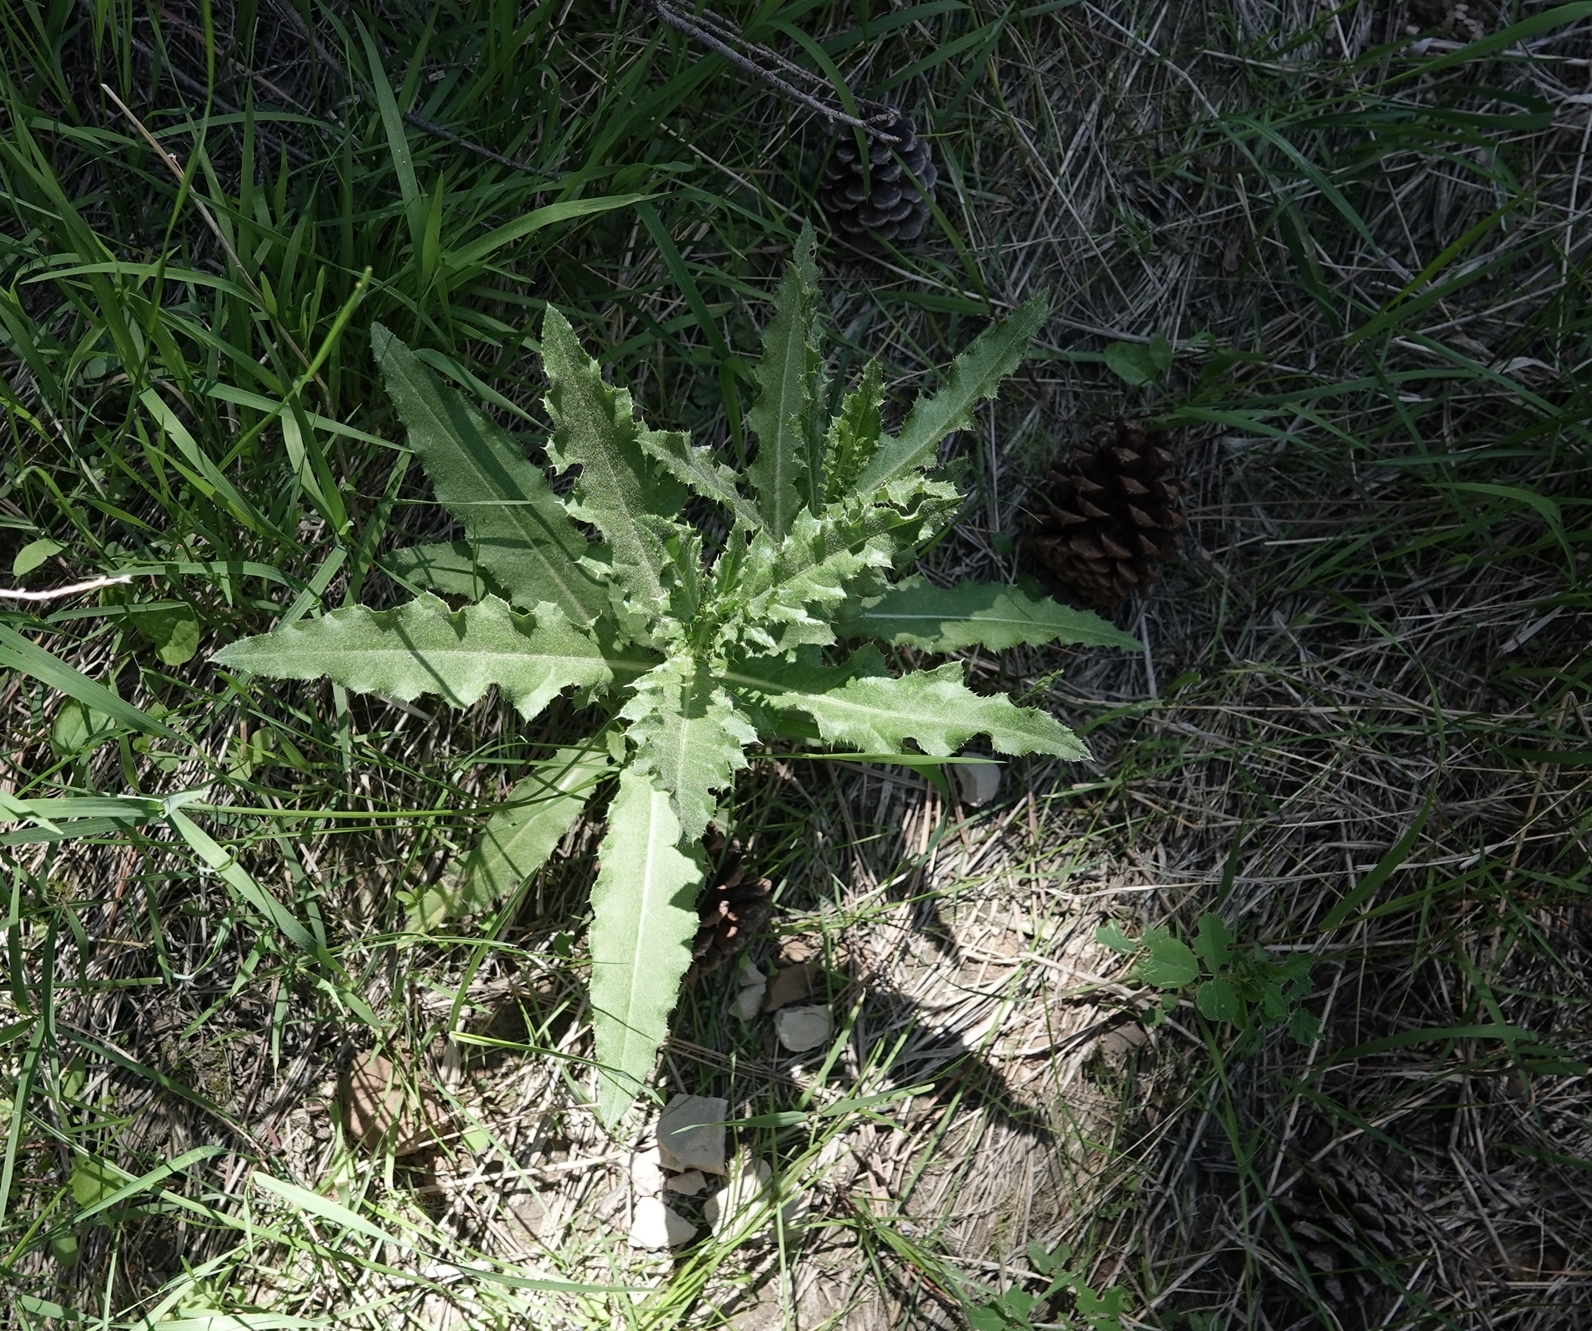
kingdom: Plantae
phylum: Tracheophyta
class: Magnoliopsida
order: Asterales
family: Asteraceae
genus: Cirsium
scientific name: Cirsium arvense
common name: Creeping thistle
